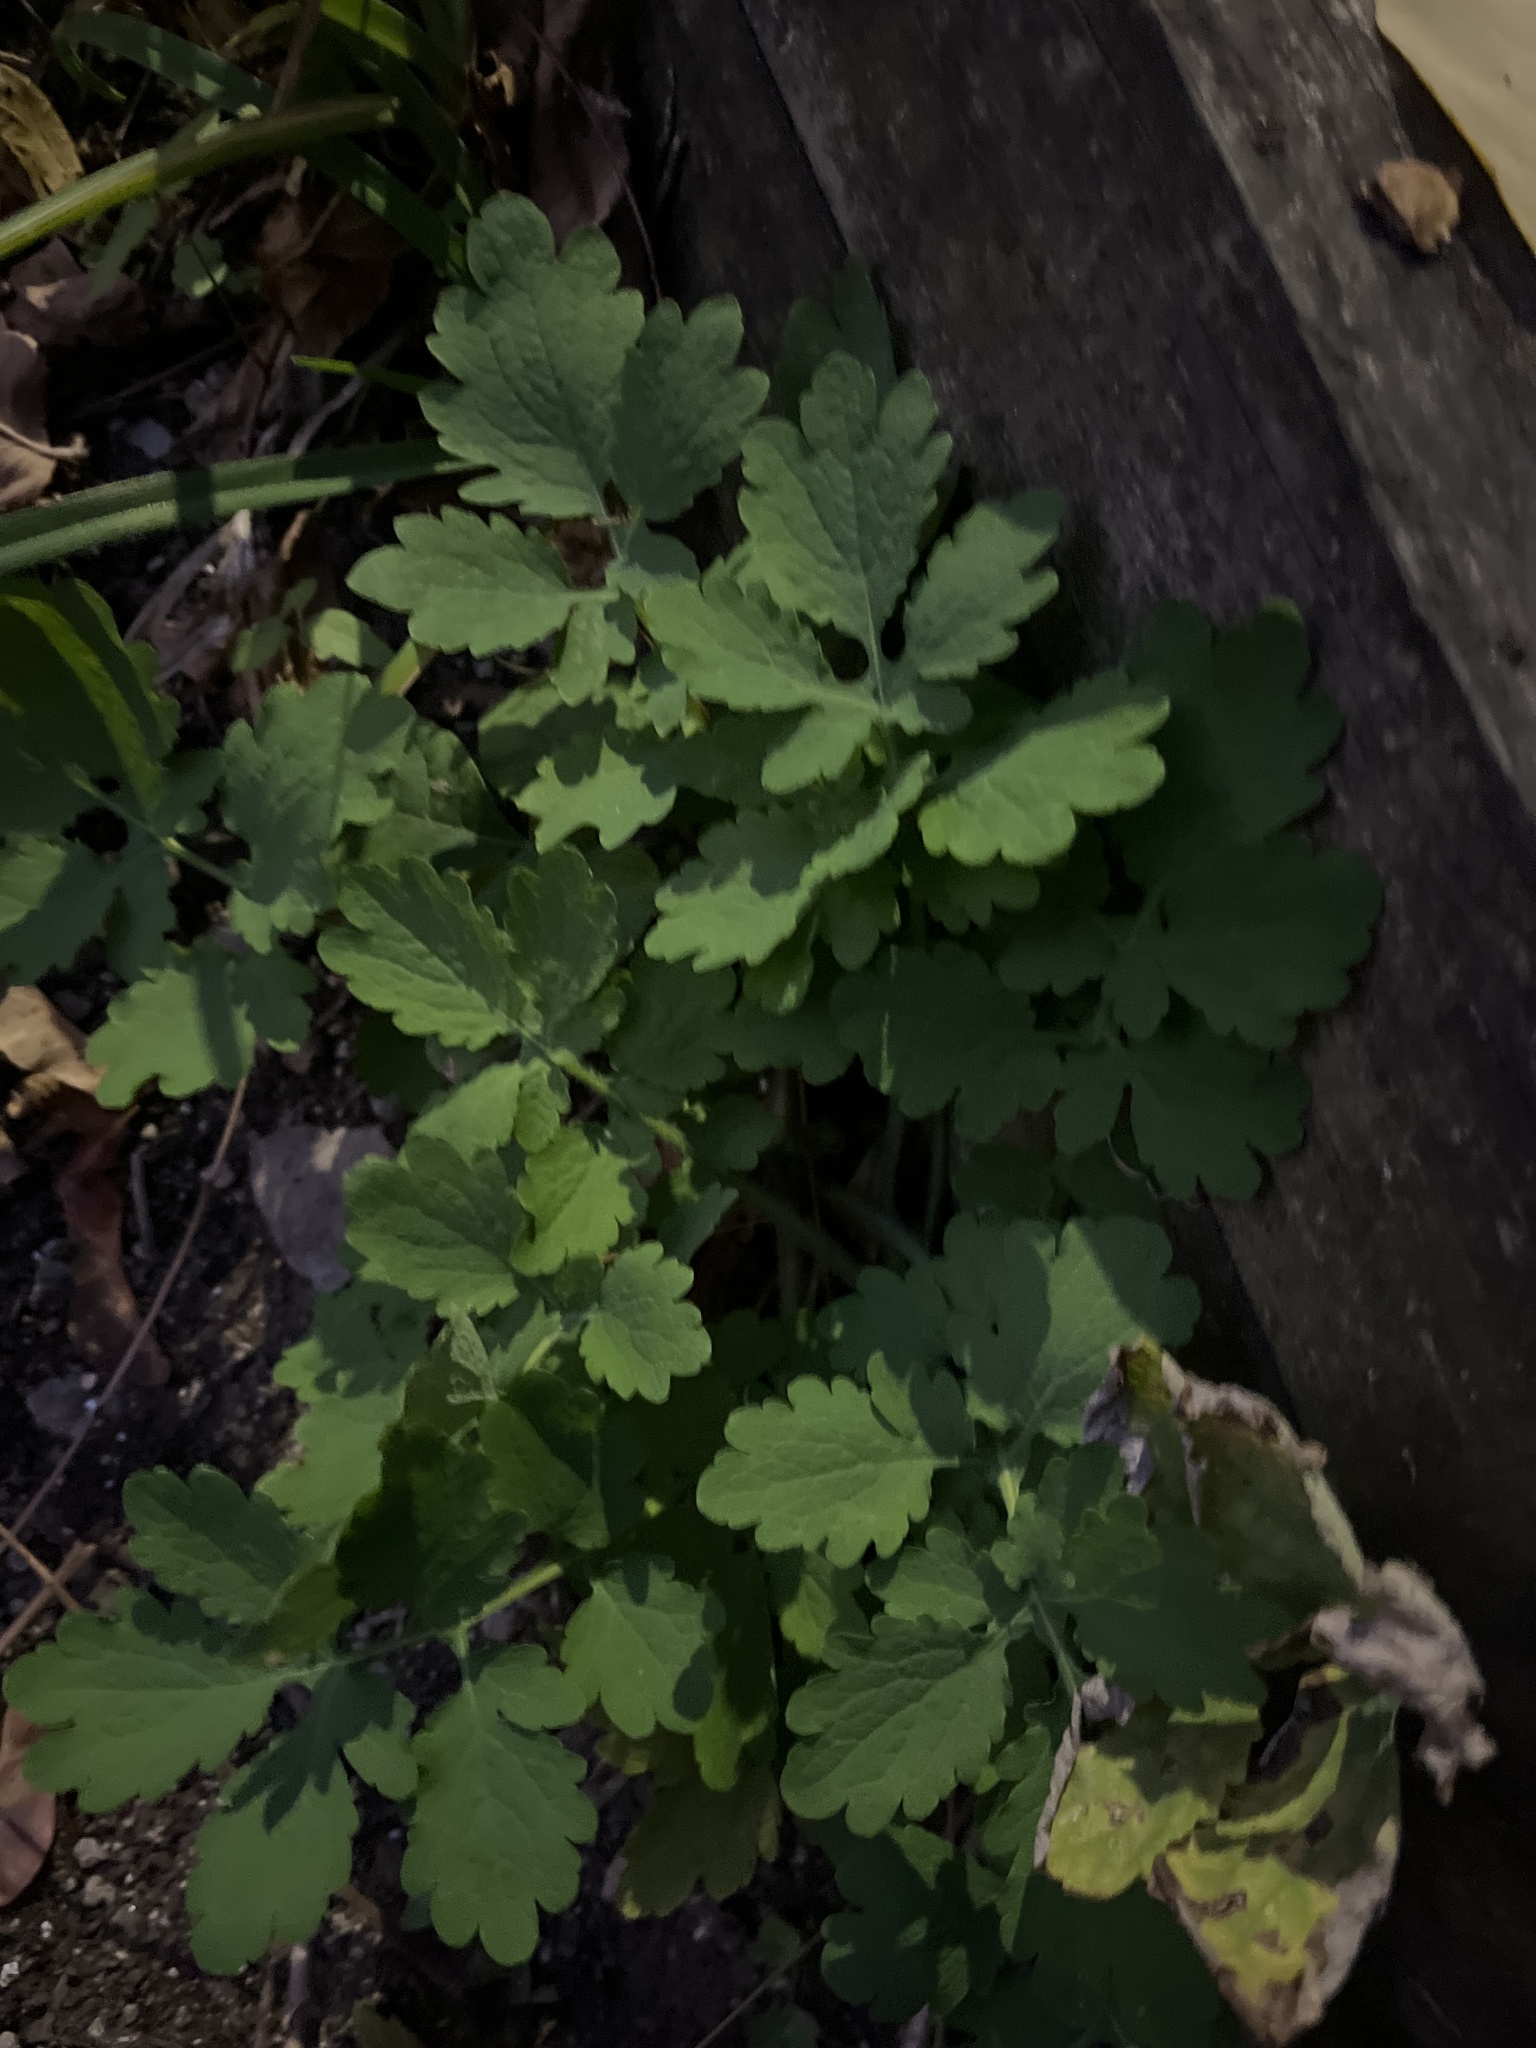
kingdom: Plantae
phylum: Tracheophyta
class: Magnoliopsida
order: Ranunculales
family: Papaveraceae
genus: Chelidonium
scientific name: Chelidonium majus
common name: Greater celandine
